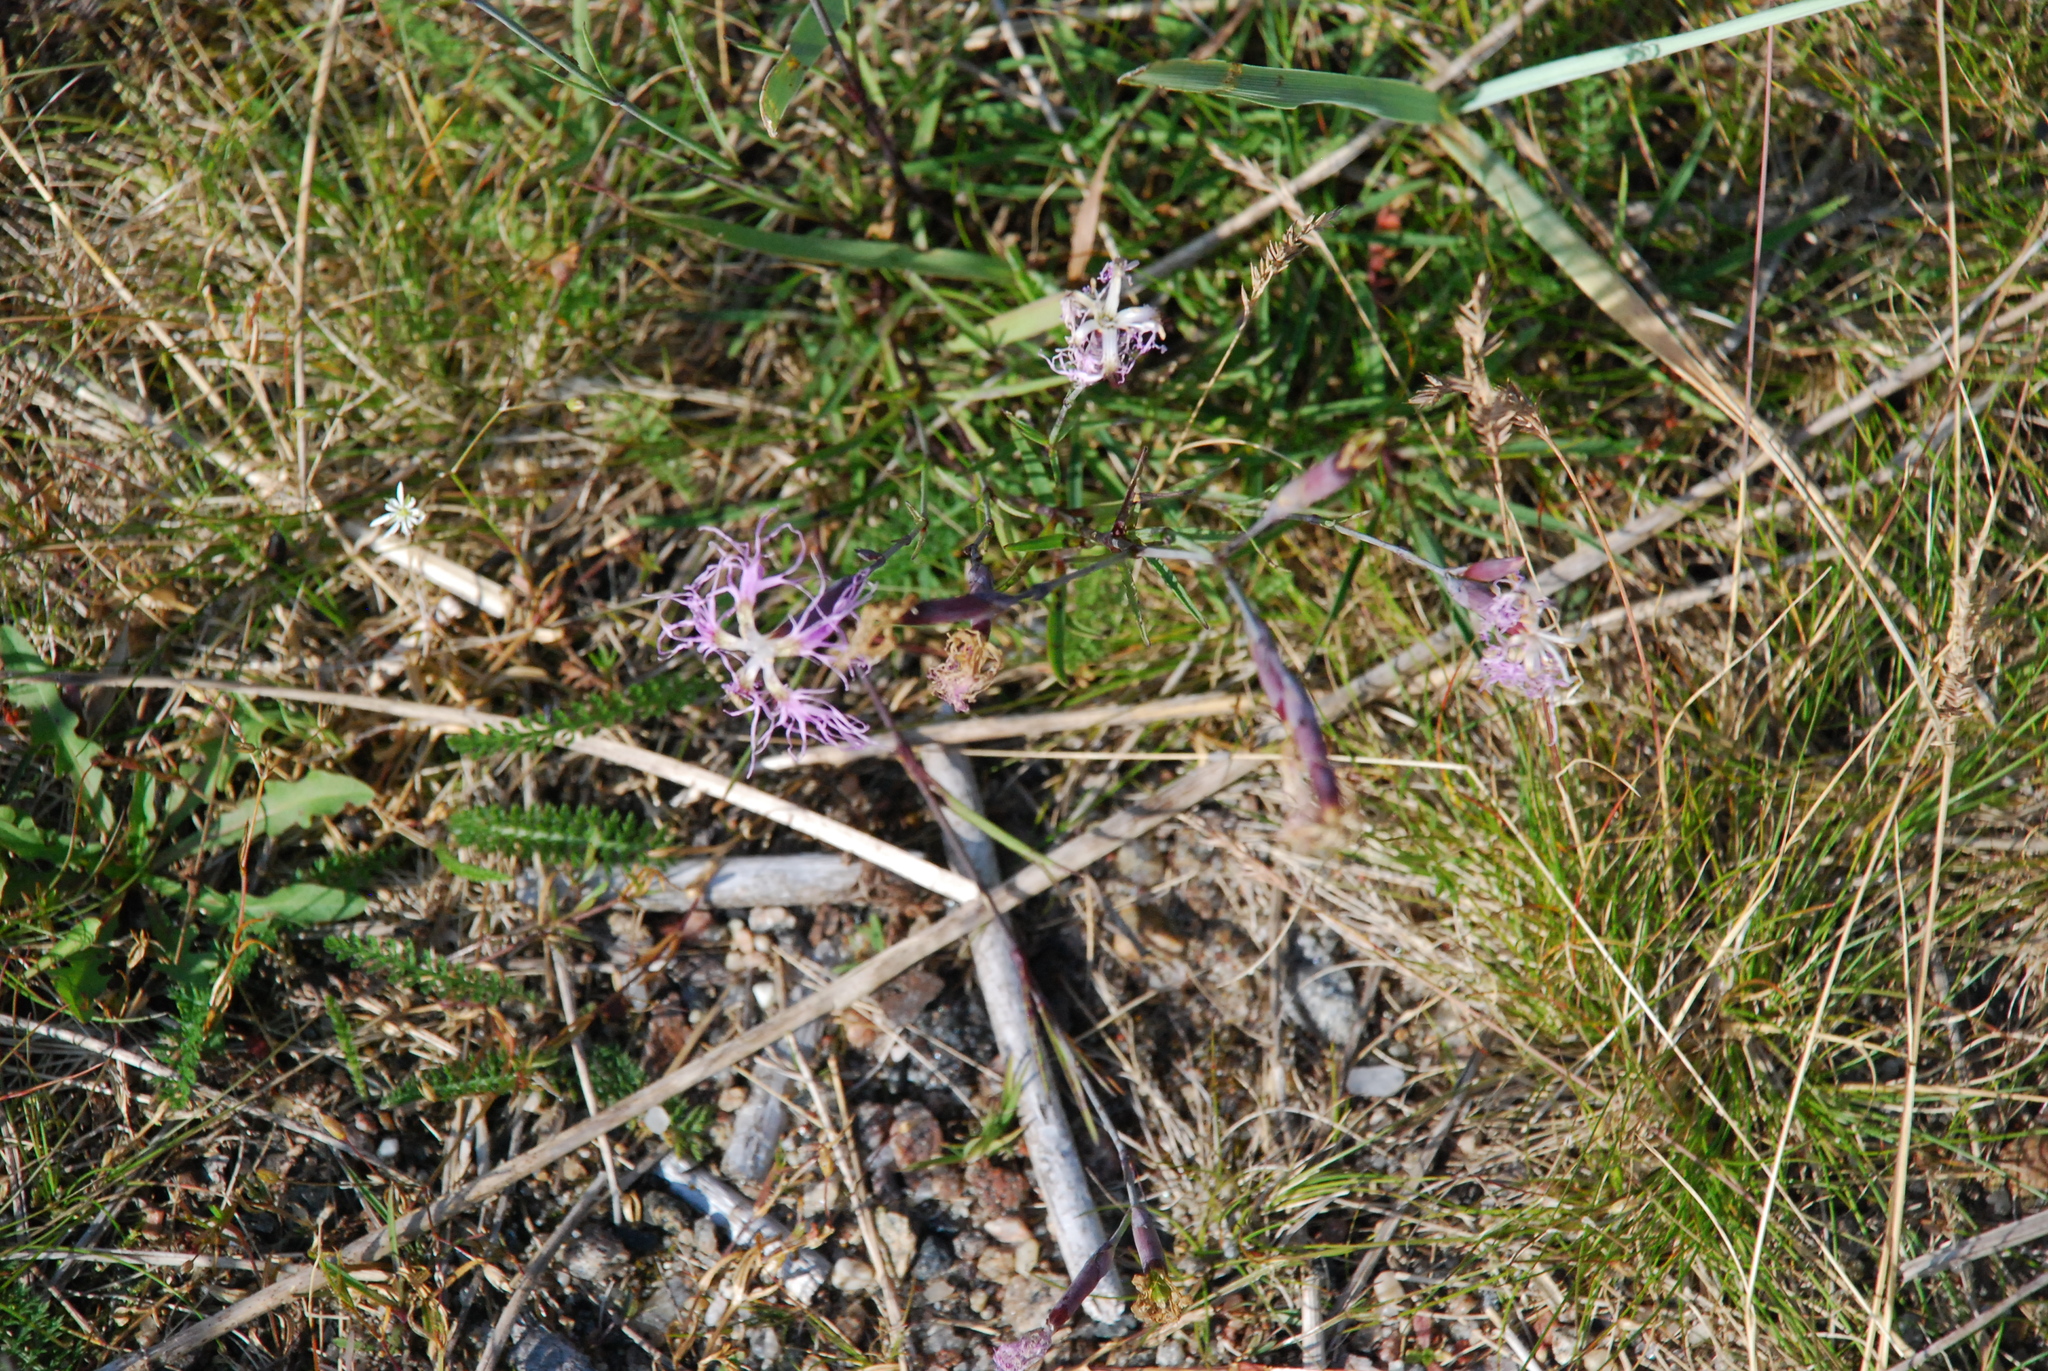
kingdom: Plantae
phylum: Tracheophyta
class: Magnoliopsida
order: Caryophyllales
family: Caryophyllaceae
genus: Dianthus
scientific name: Dianthus superbus
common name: Fringed pink
